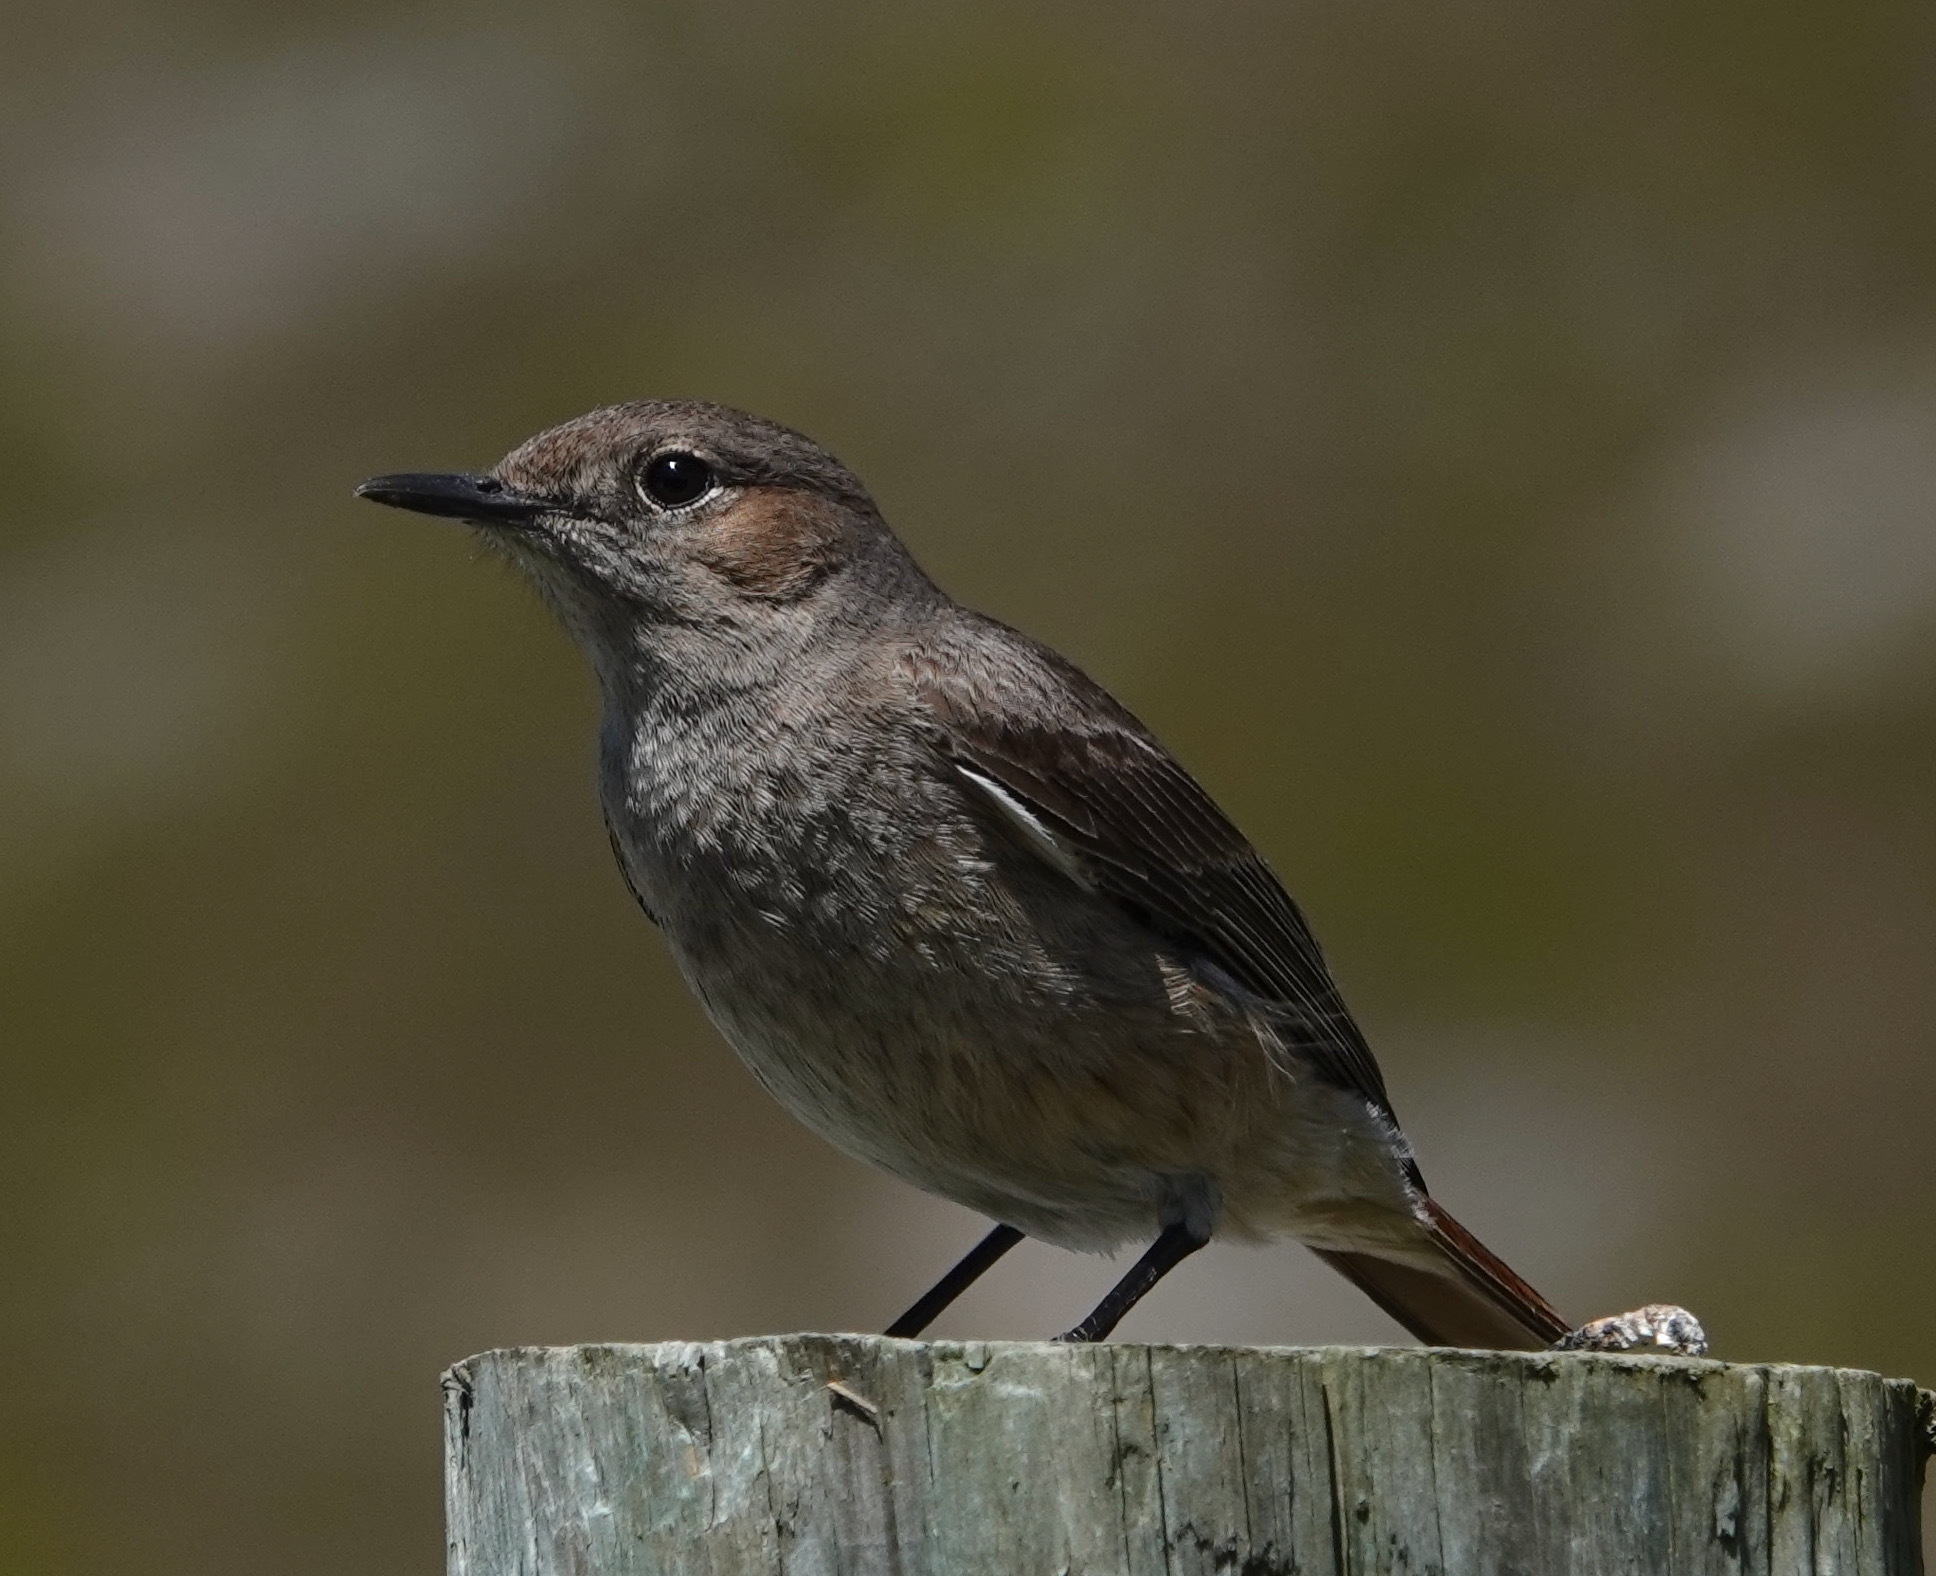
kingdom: Animalia
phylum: Chordata
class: Aves
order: Passeriformes
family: Muscicapidae
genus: Oenanthe
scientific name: Oenanthe familiaris
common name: Familiar chat
